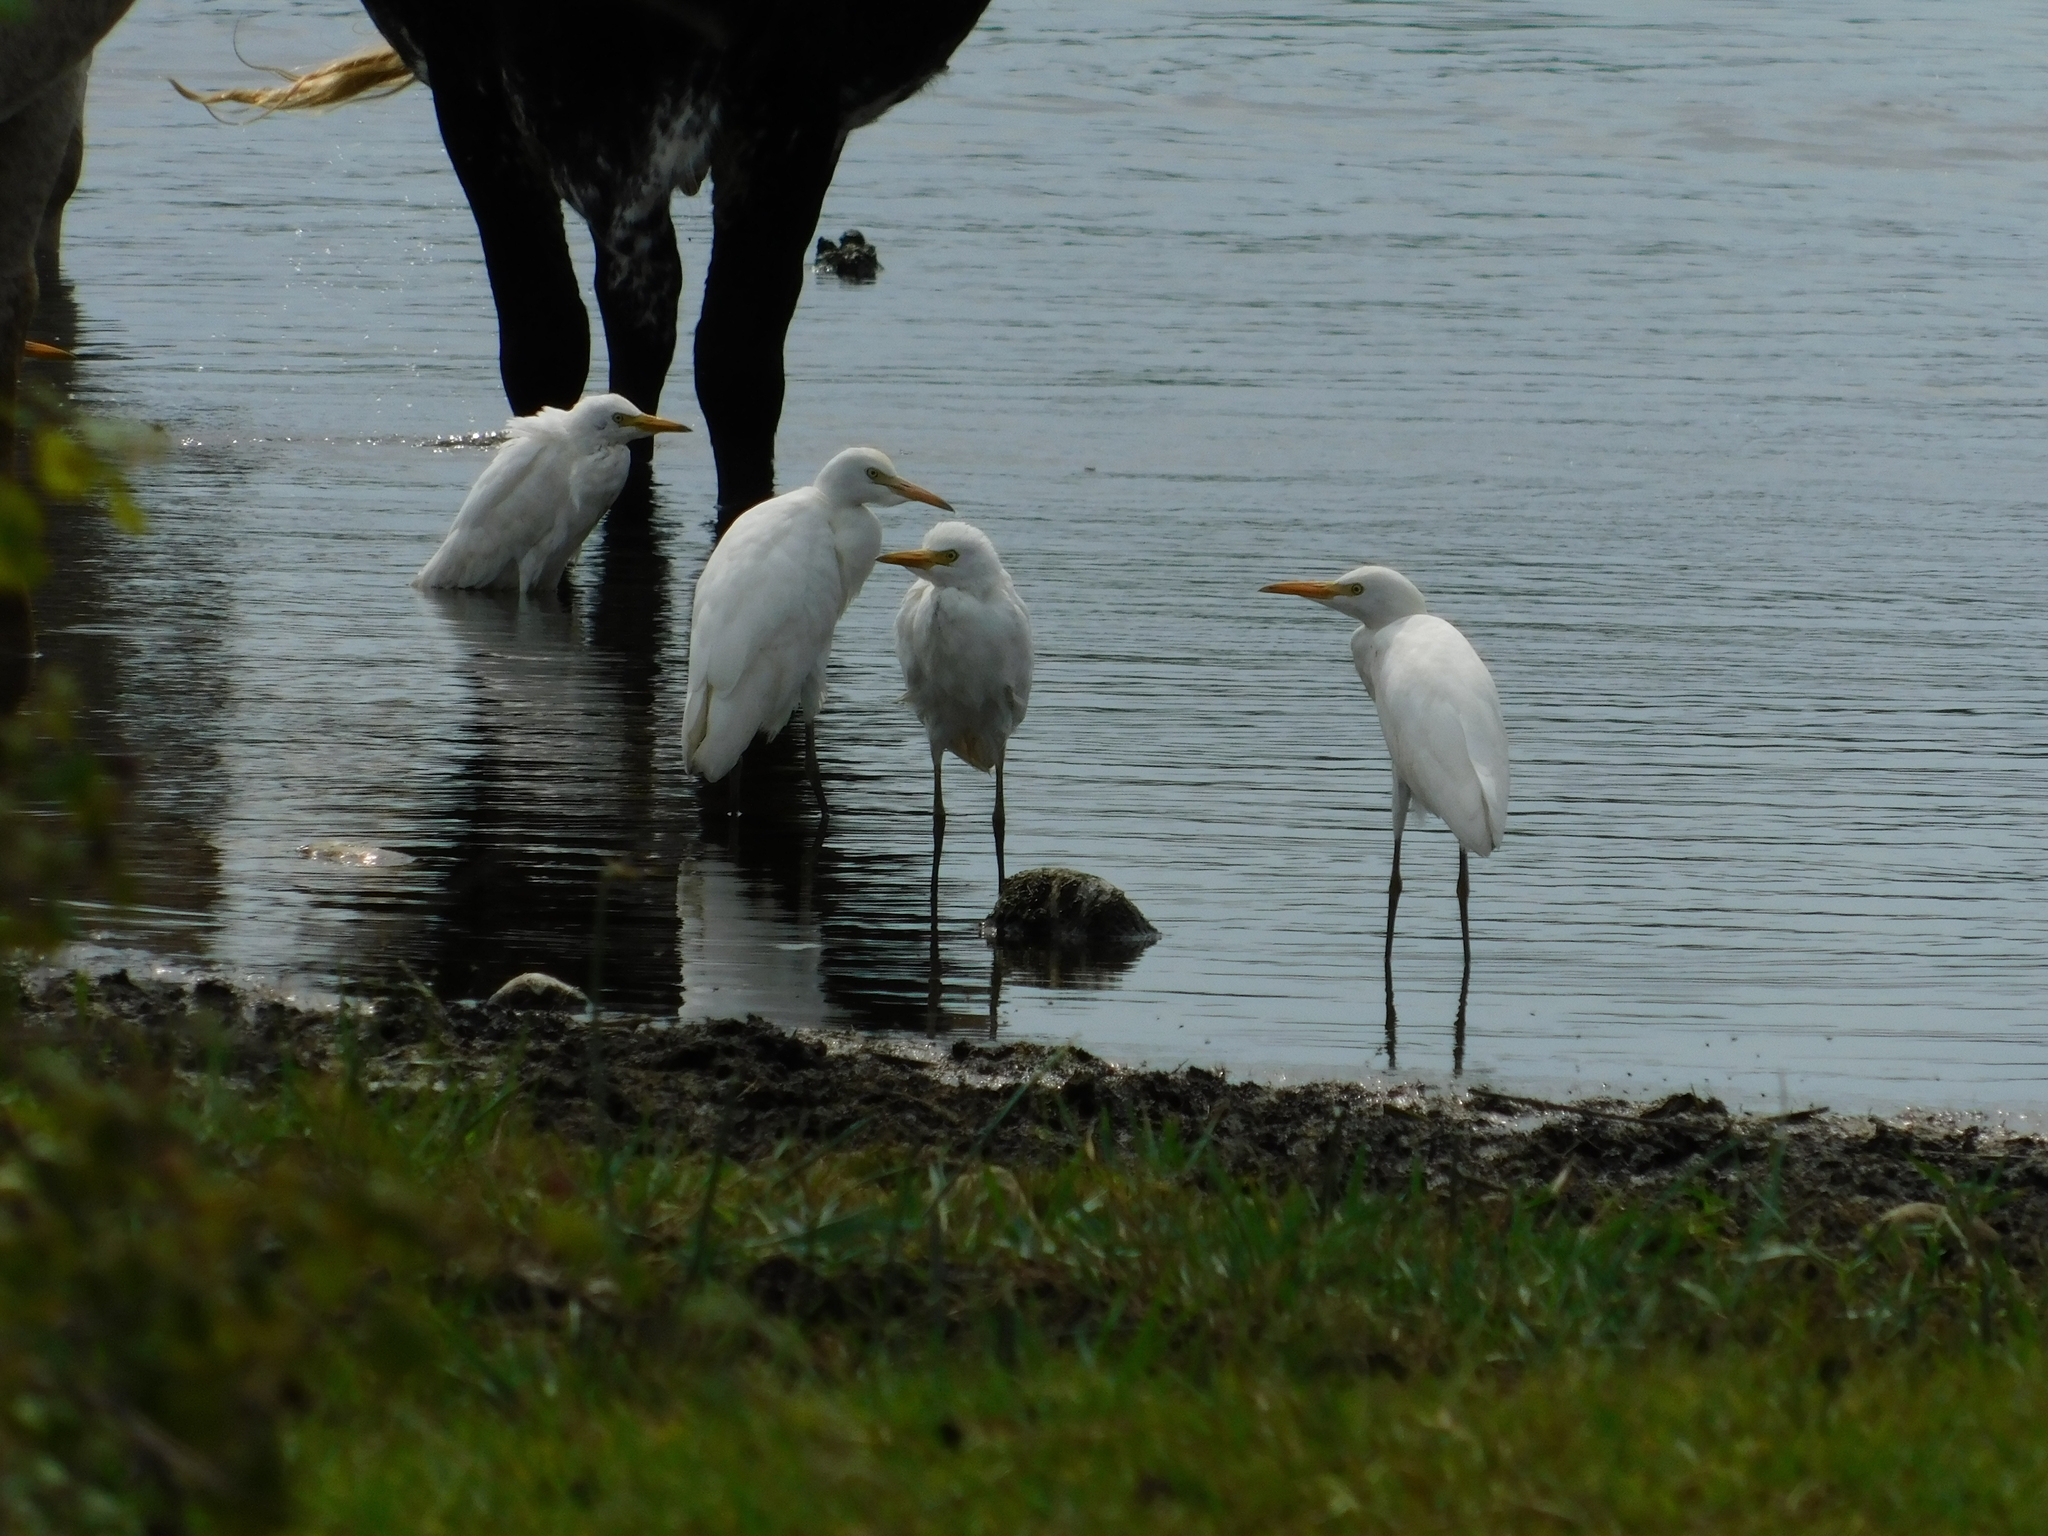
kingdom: Animalia
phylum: Chordata
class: Aves
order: Pelecaniformes
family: Ardeidae
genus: Bubulcus
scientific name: Bubulcus ibis
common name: Cattle egret
